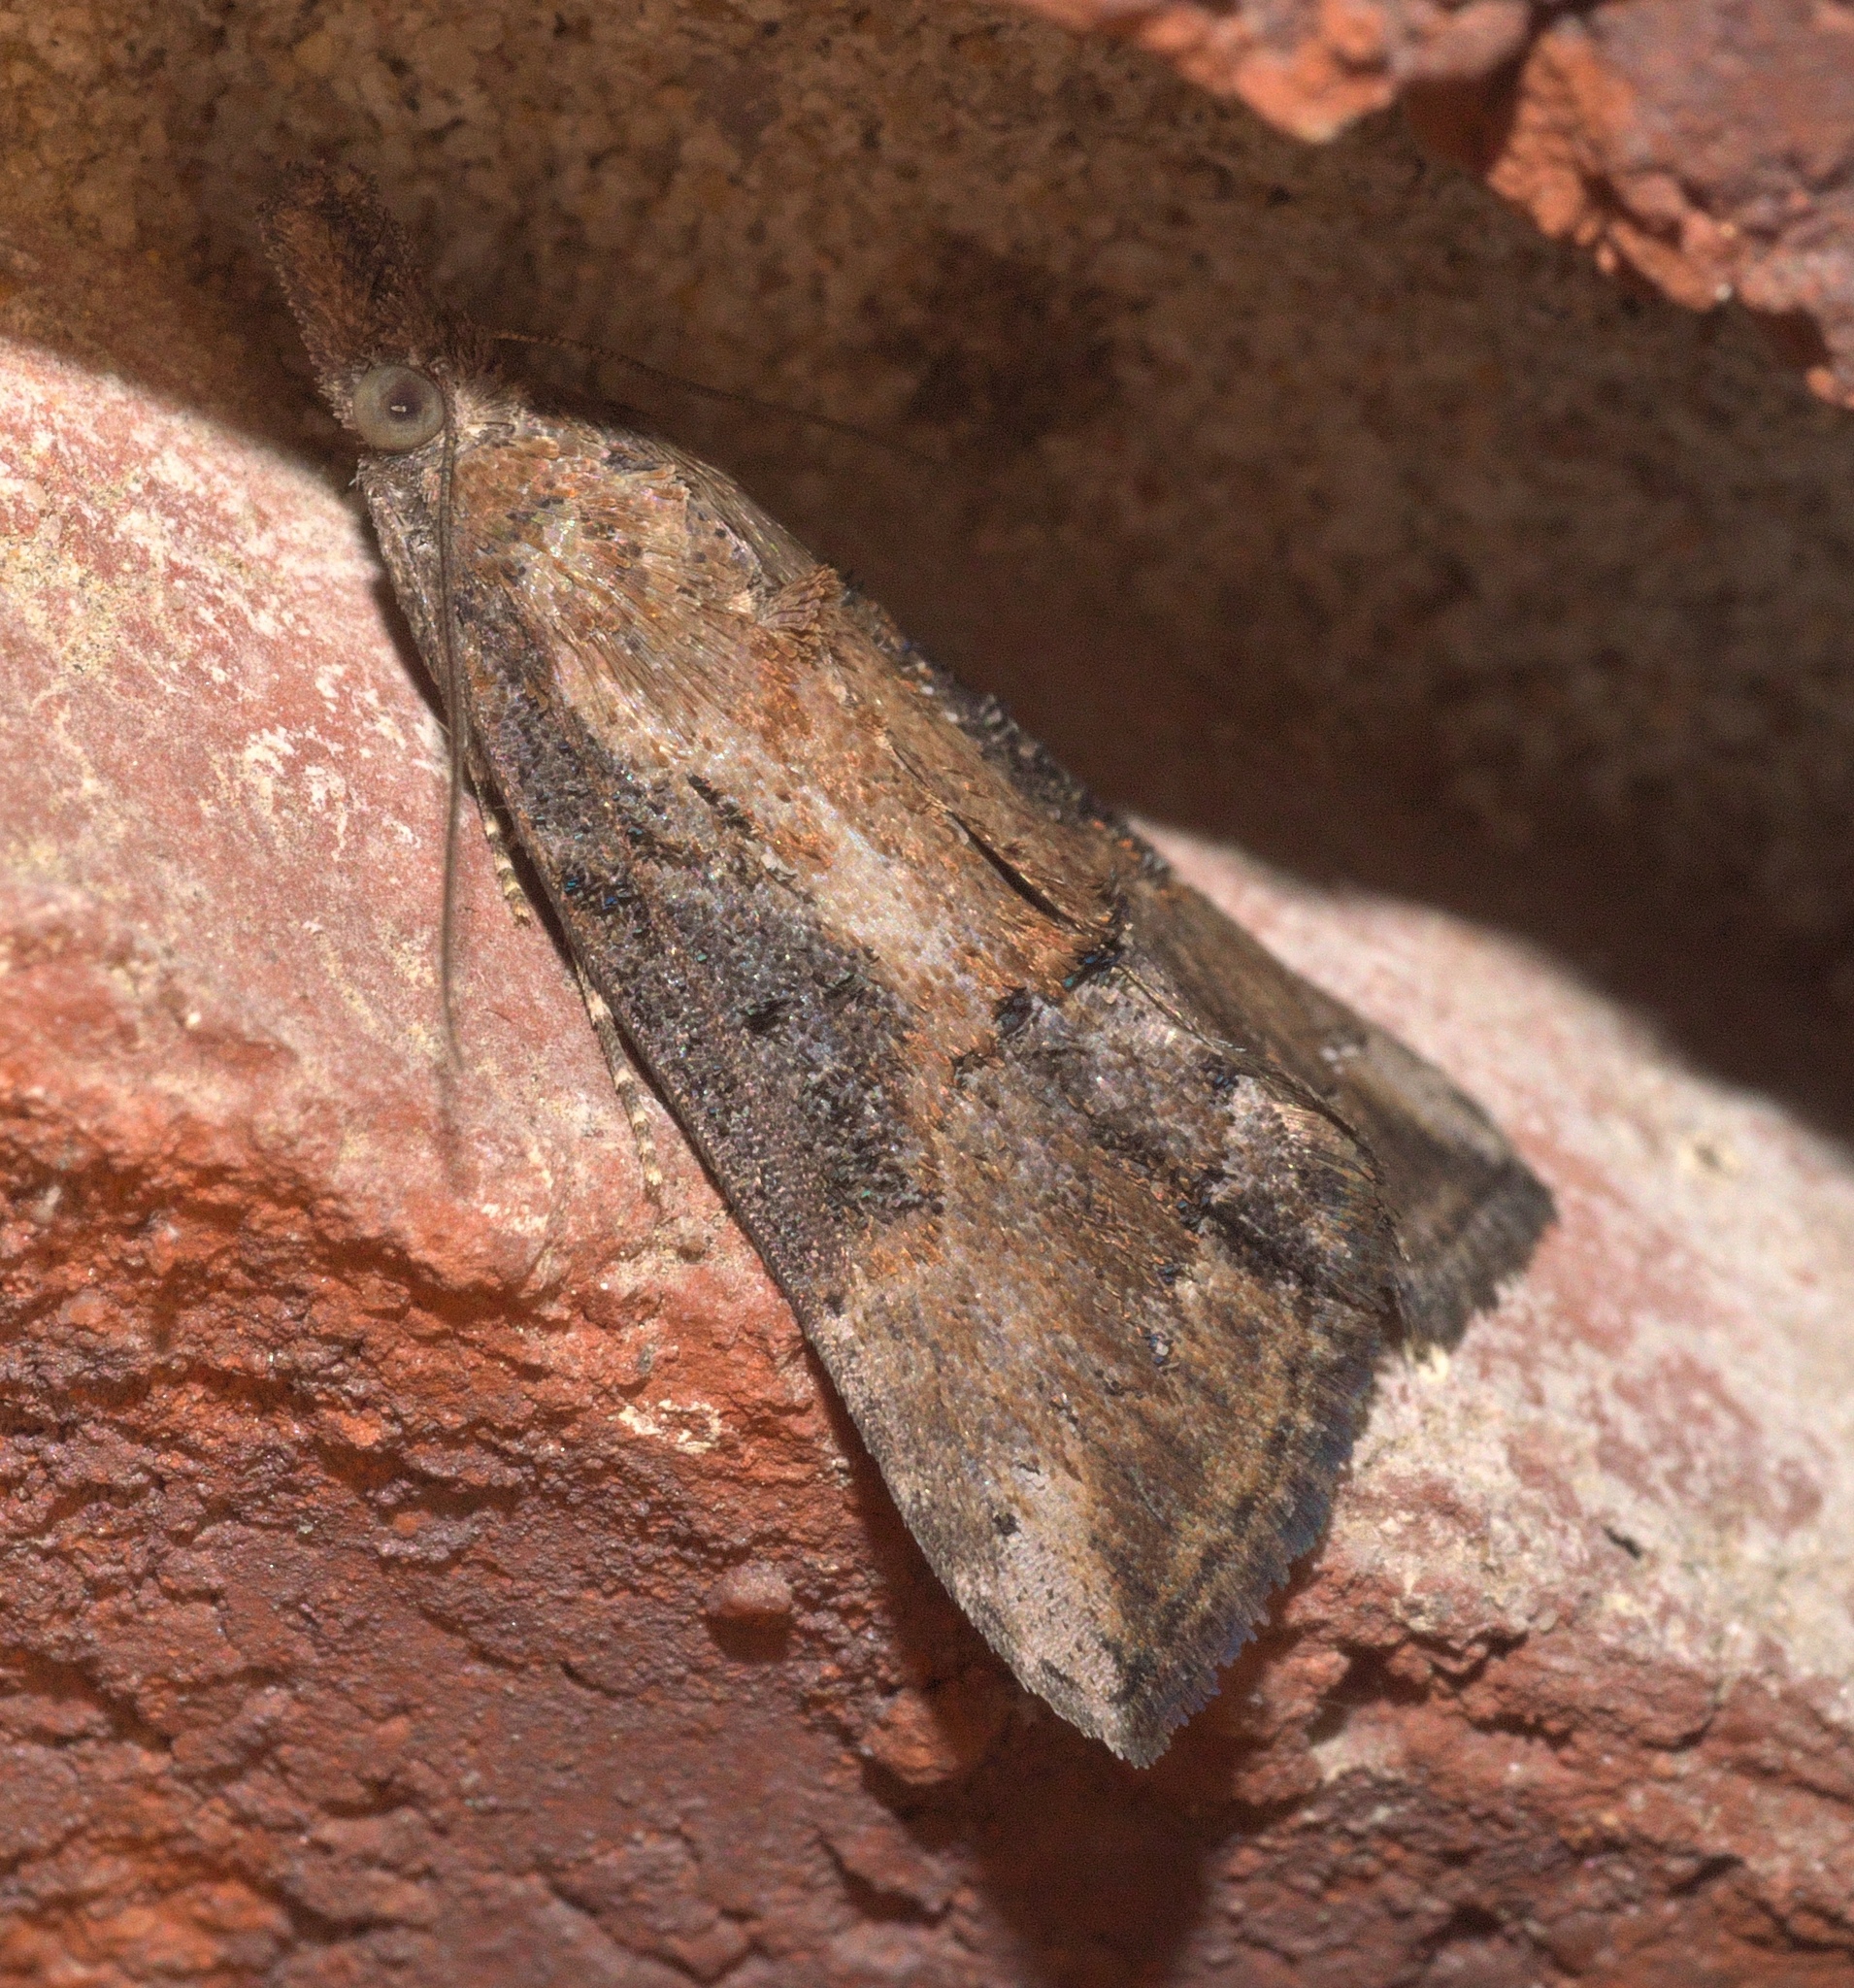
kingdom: Animalia
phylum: Arthropoda
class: Insecta
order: Lepidoptera
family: Erebidae
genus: Hypena
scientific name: Hypena scabra
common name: Green cloverworm
